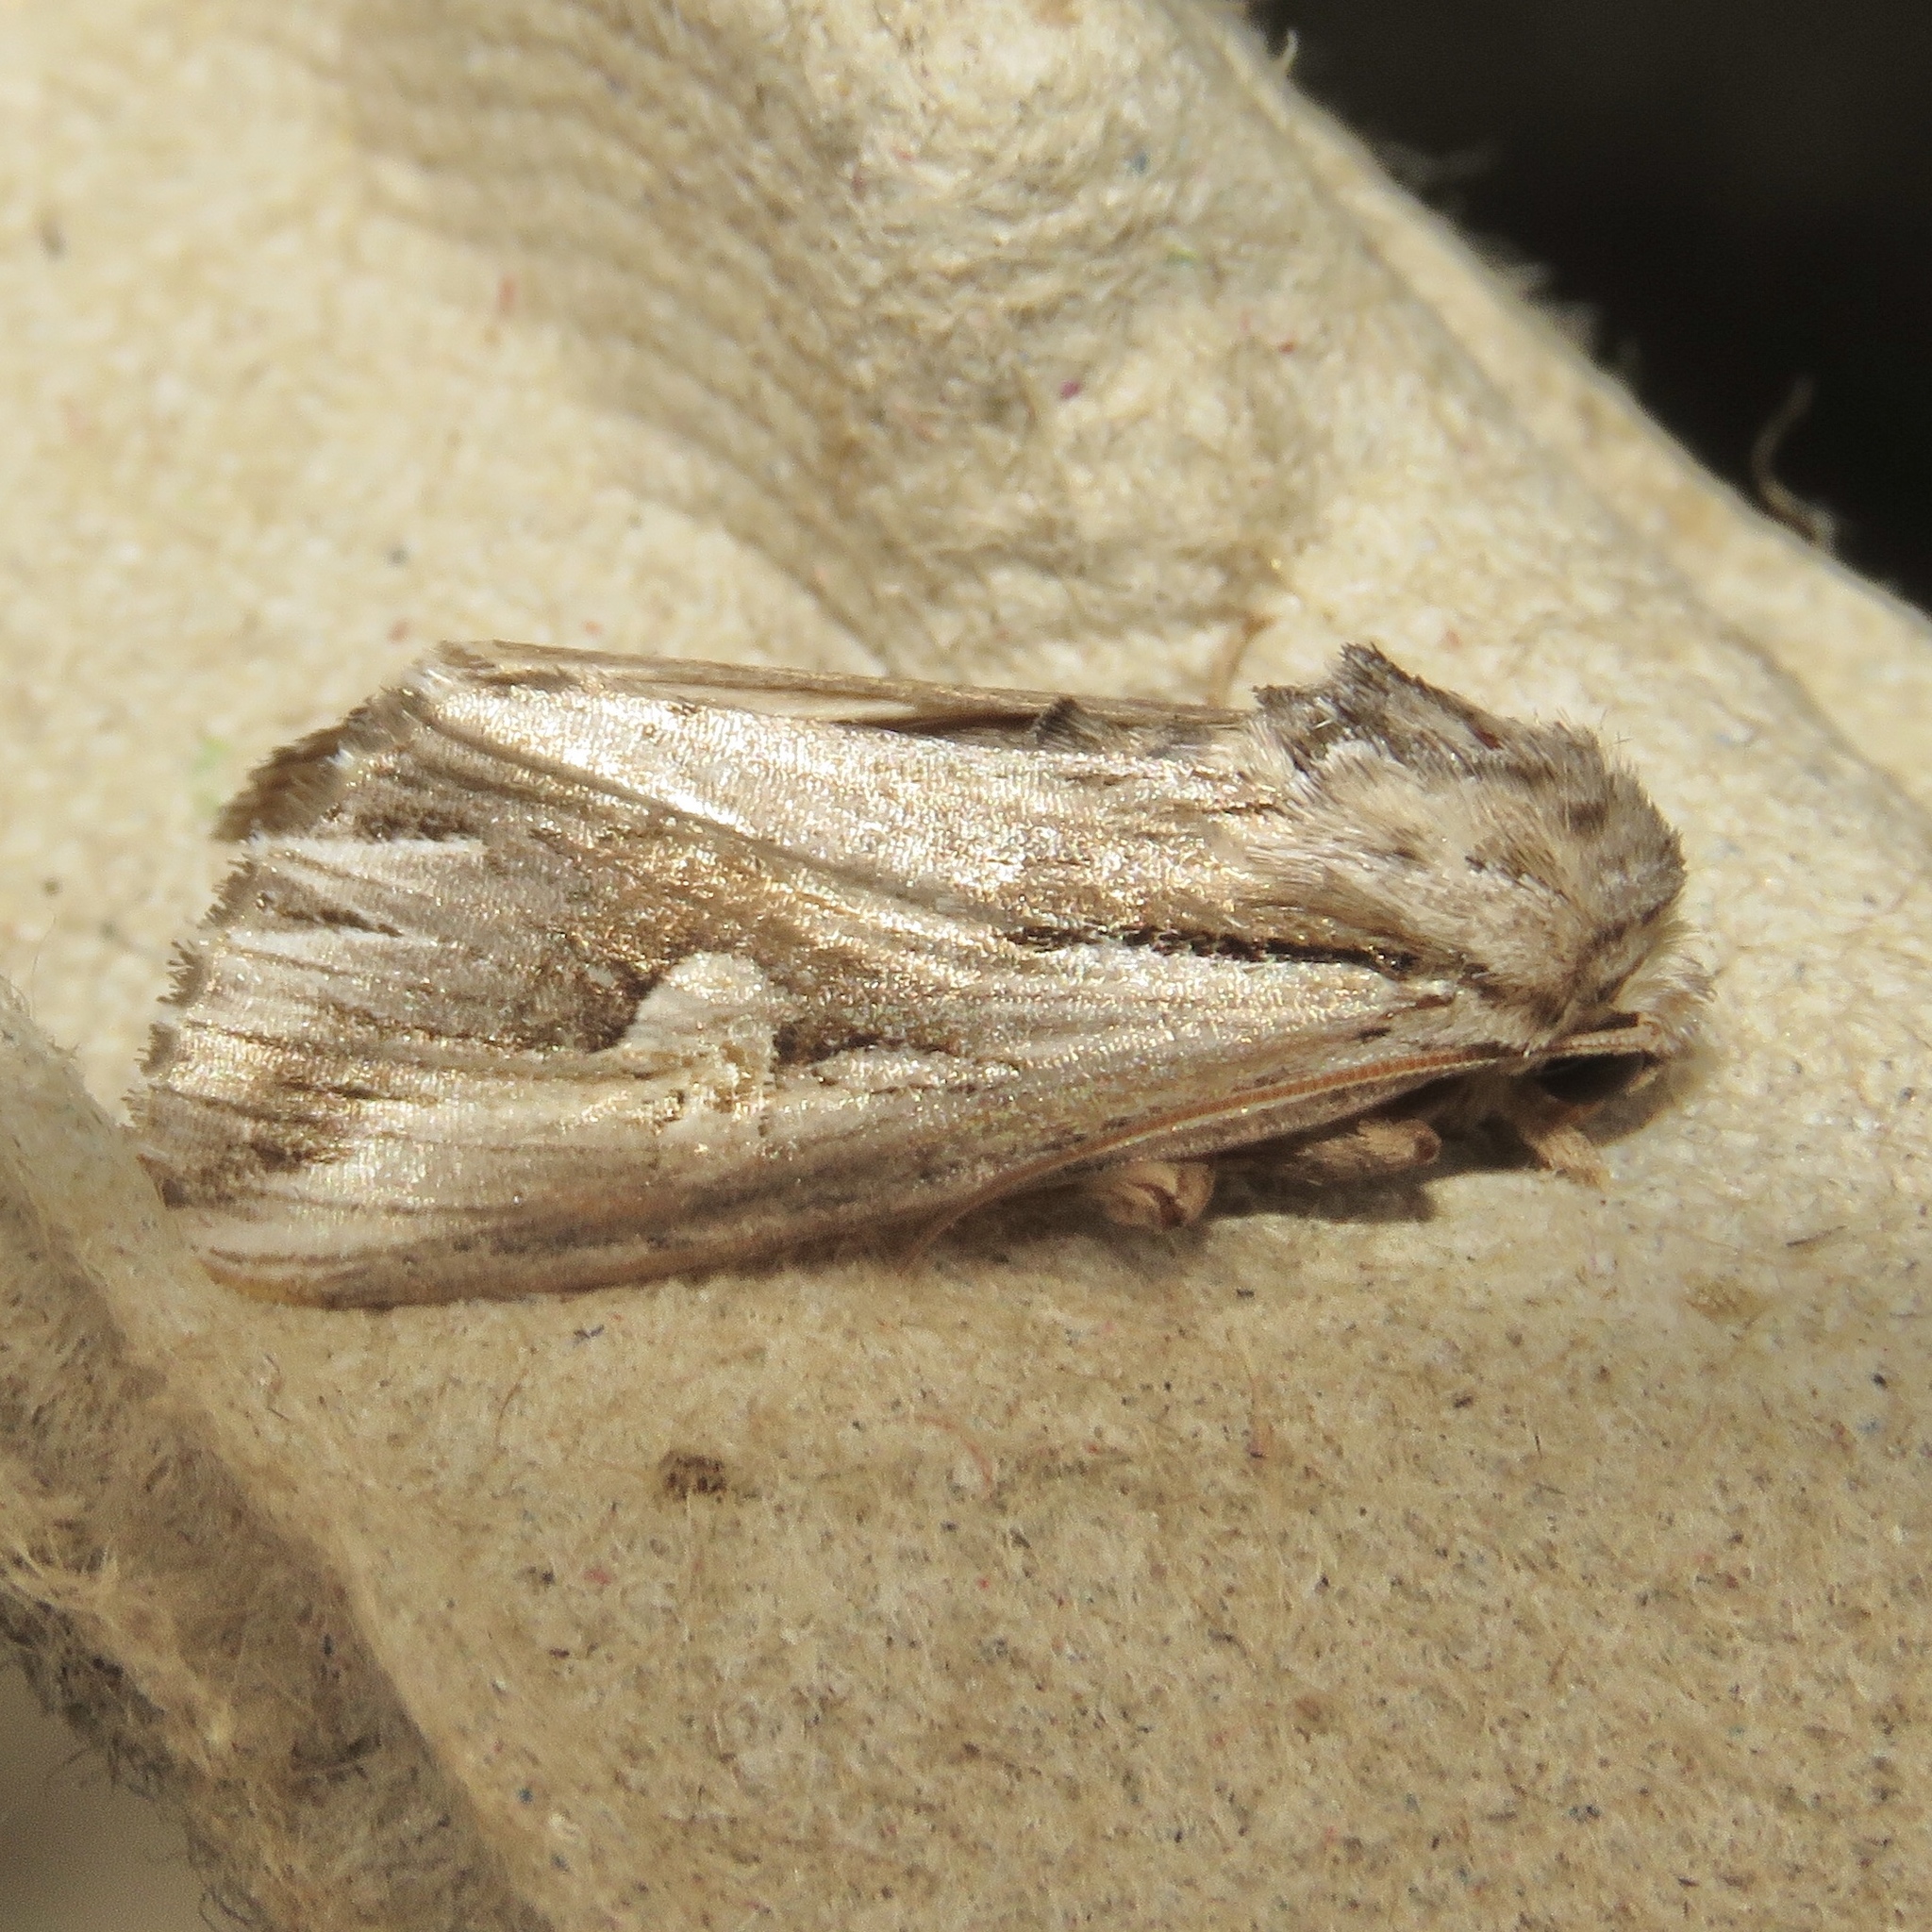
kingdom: Animalia
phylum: Arthropoda
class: Insecta
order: Lepidoptera
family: Noctuidae
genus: Nedra
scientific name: Nedra ramosula
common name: Gray half-spot
